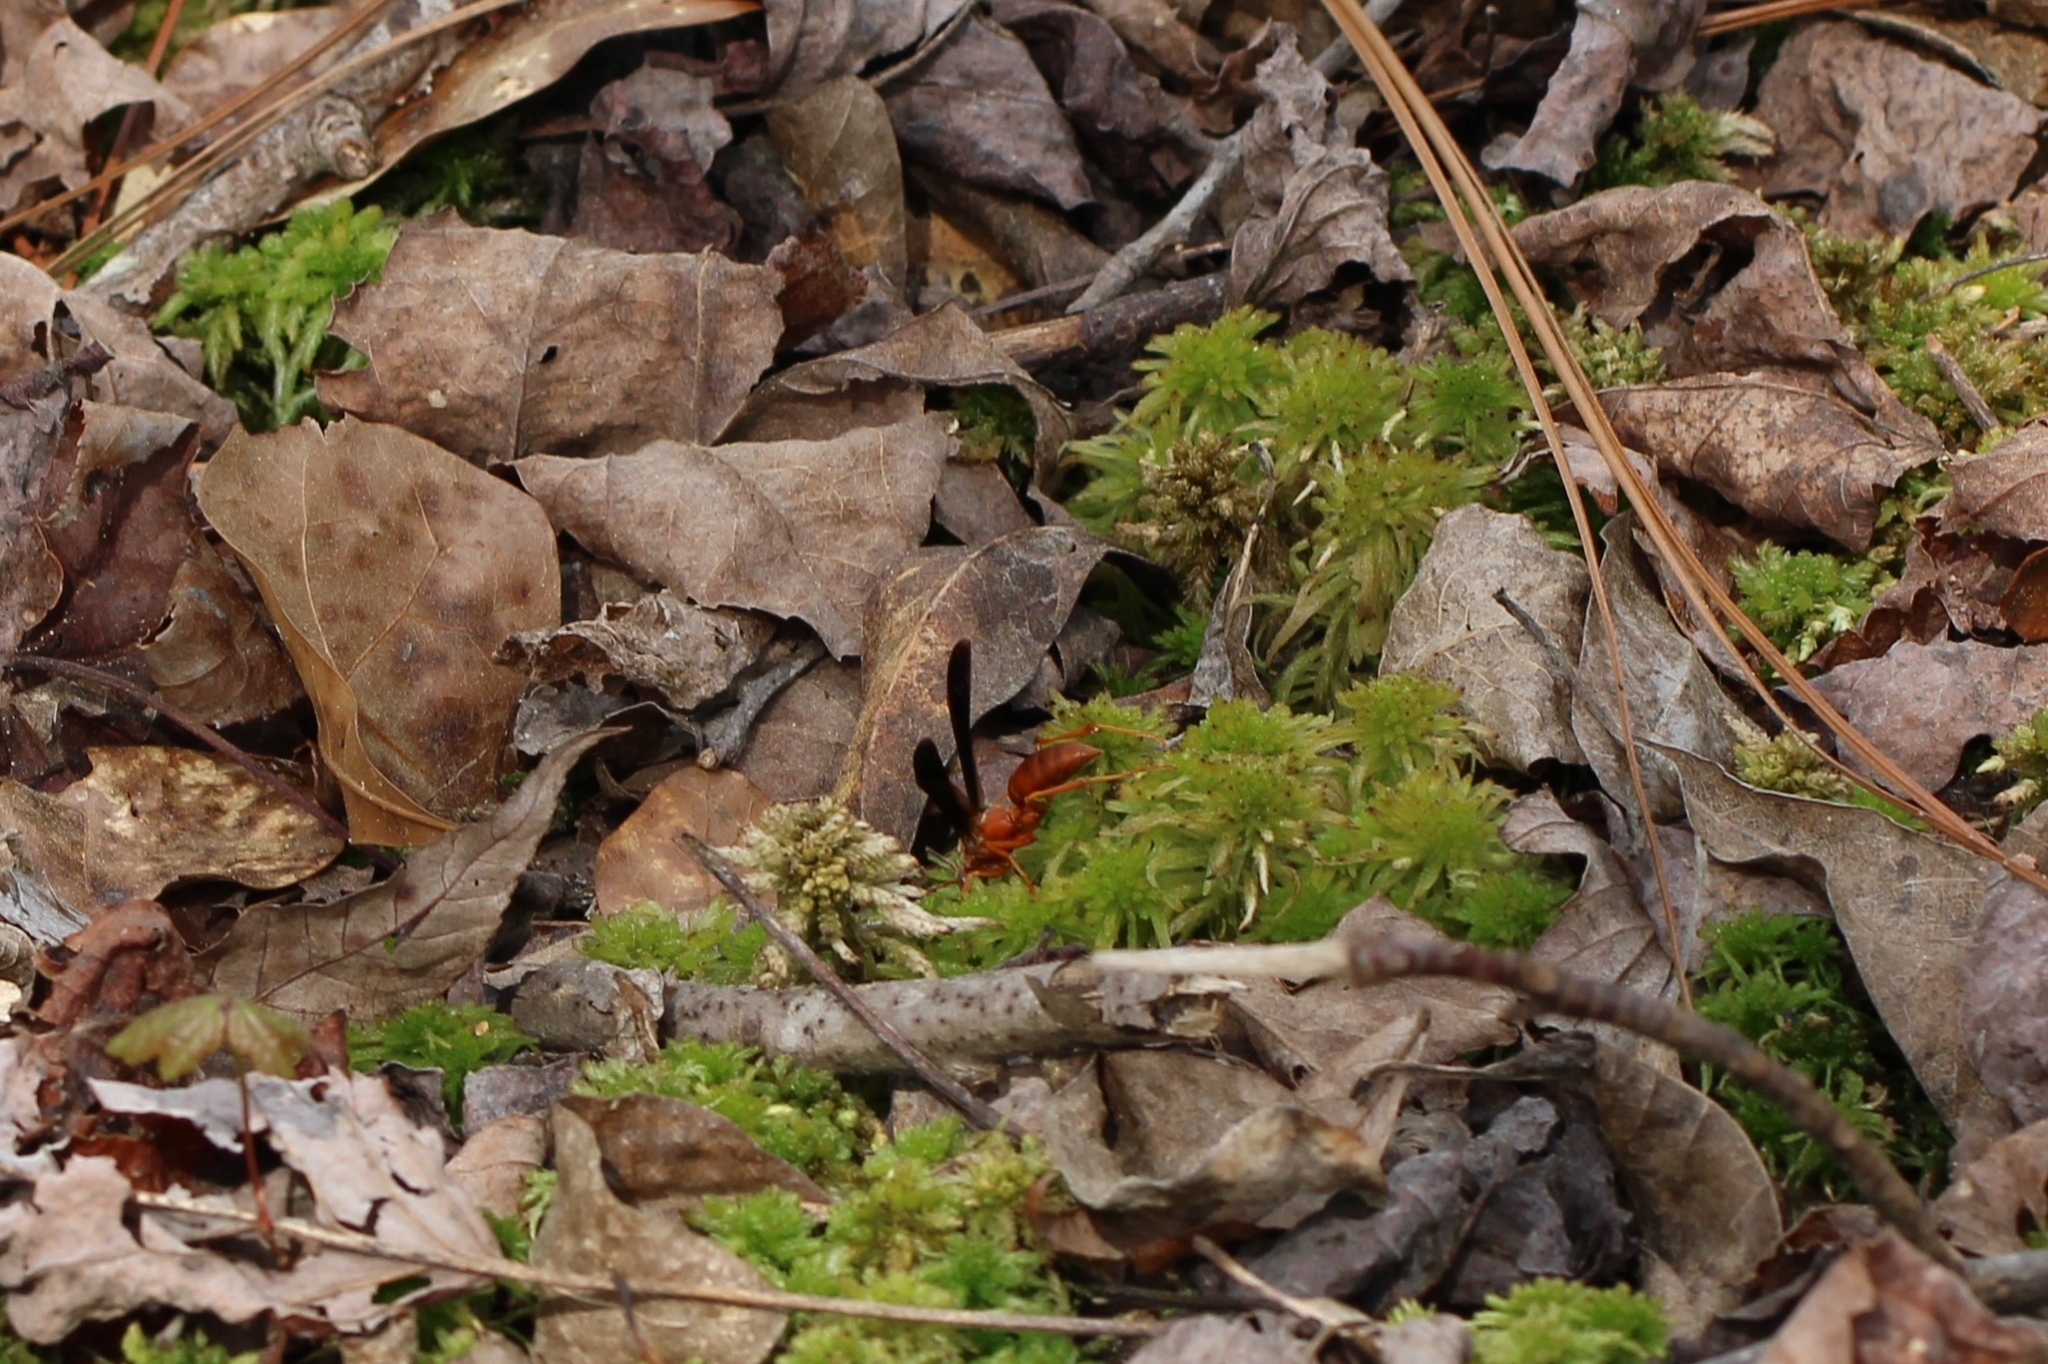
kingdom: Animalia
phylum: Arthropoda
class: Insecta
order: Hymenoptera
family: Vespidae
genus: Fuscopolistes
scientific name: Fuscopolistes
